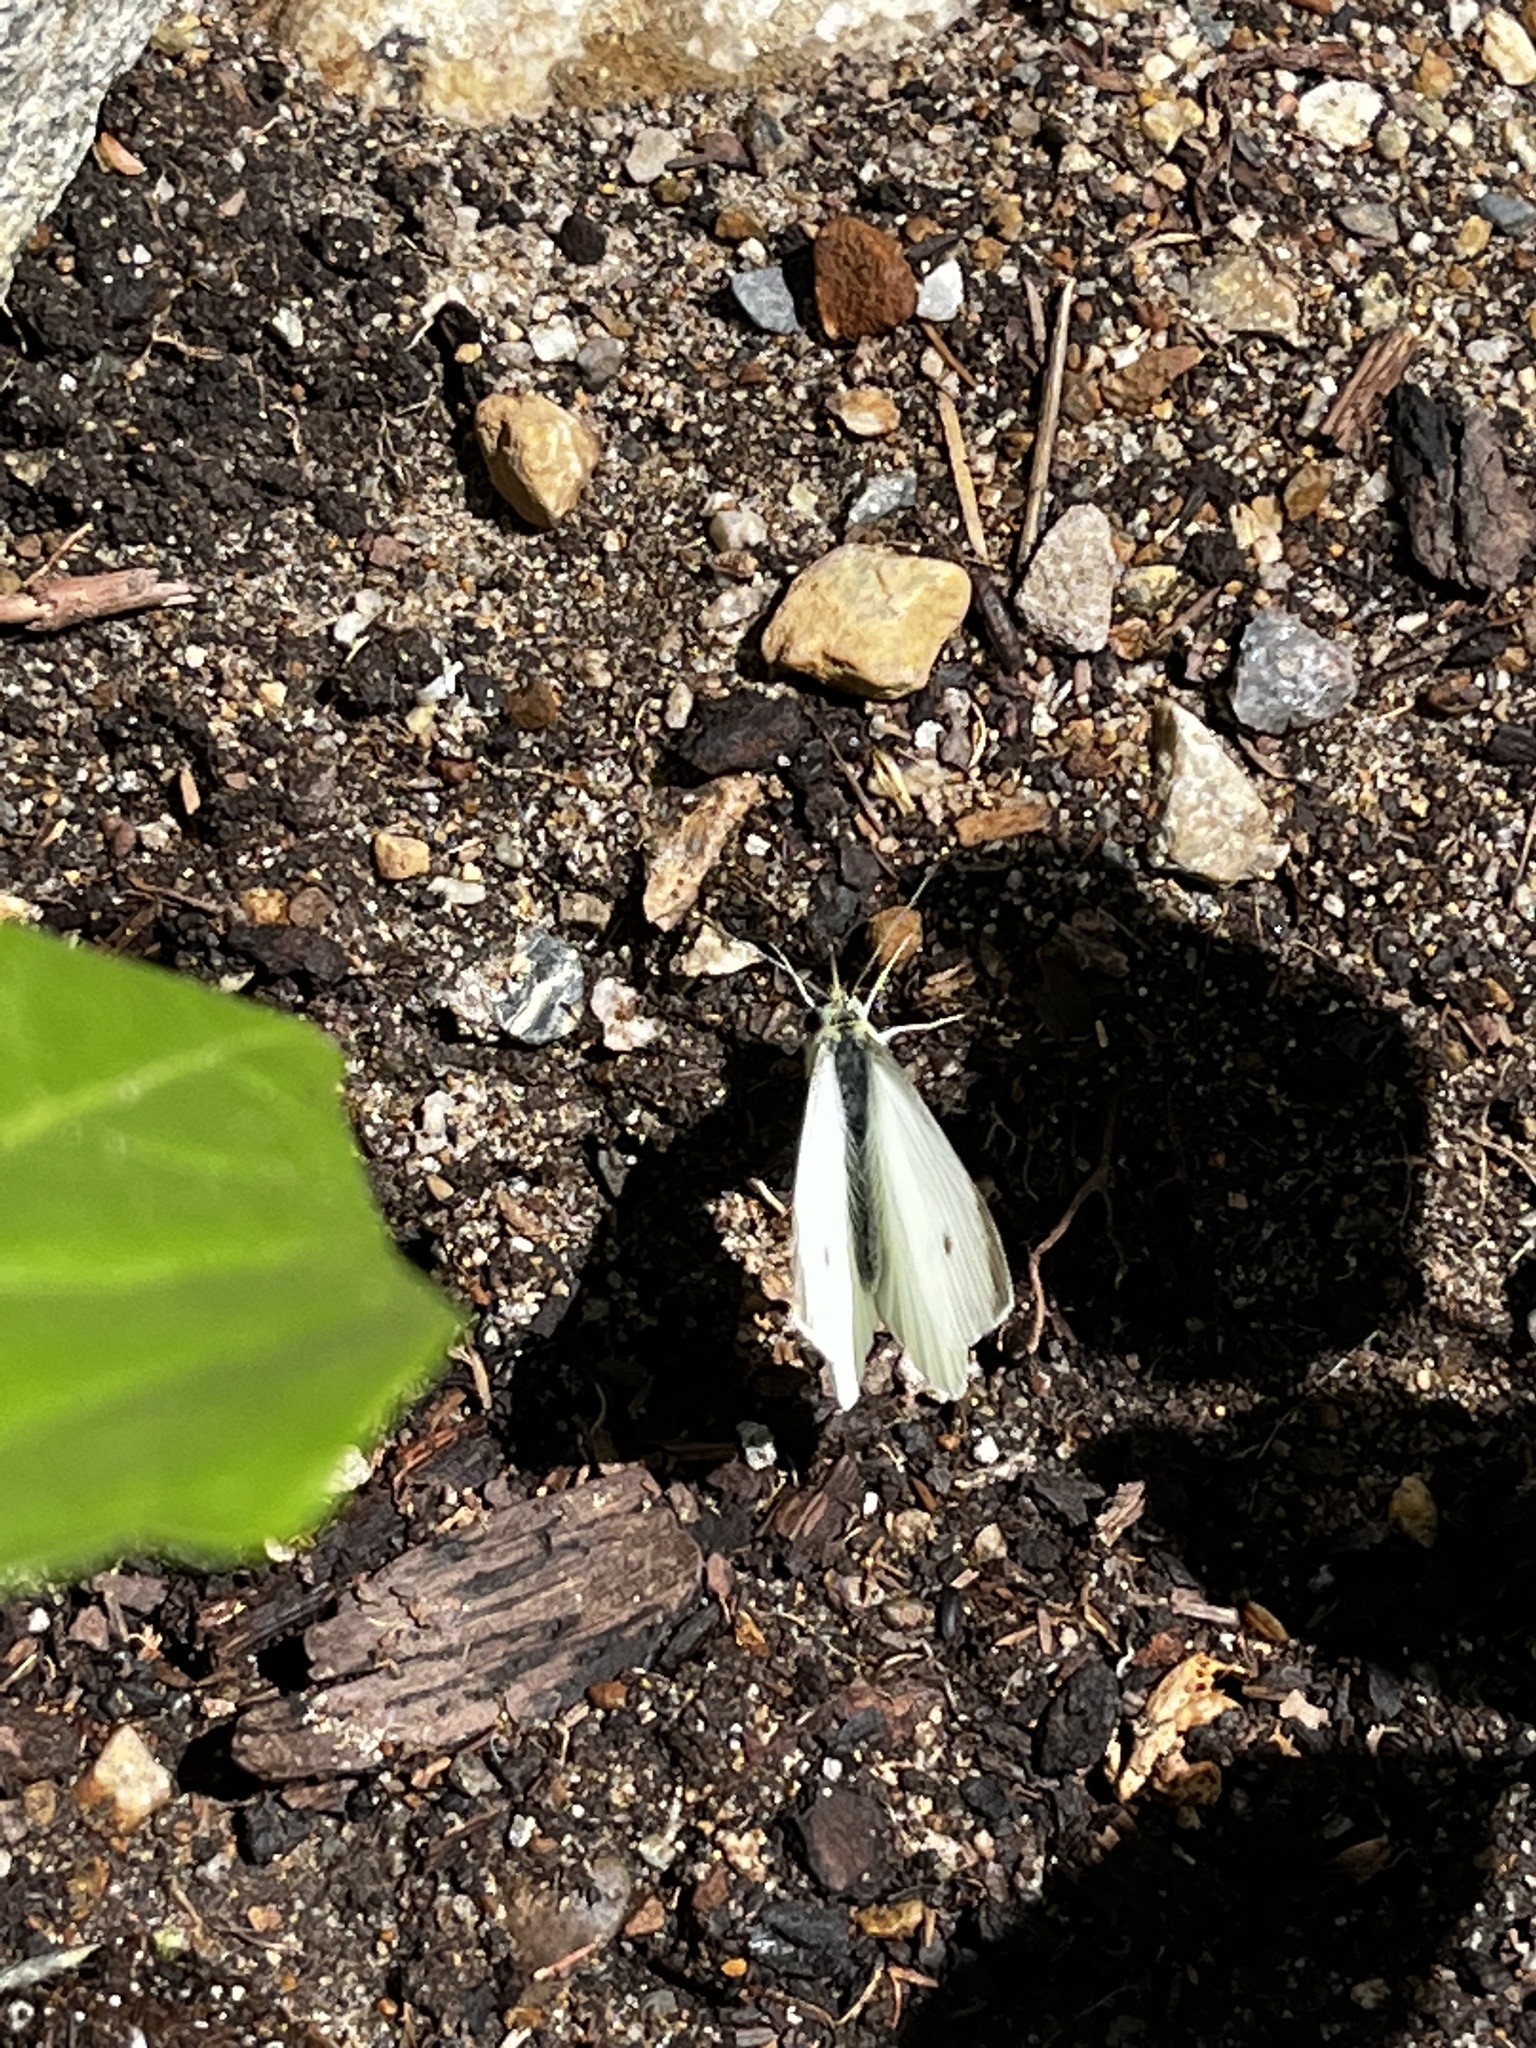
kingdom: Animalia
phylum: Arthropoda
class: Insecta
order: Lepidoptera
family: Pieridae
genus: Pieris
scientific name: Pieris rapae
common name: Small white
